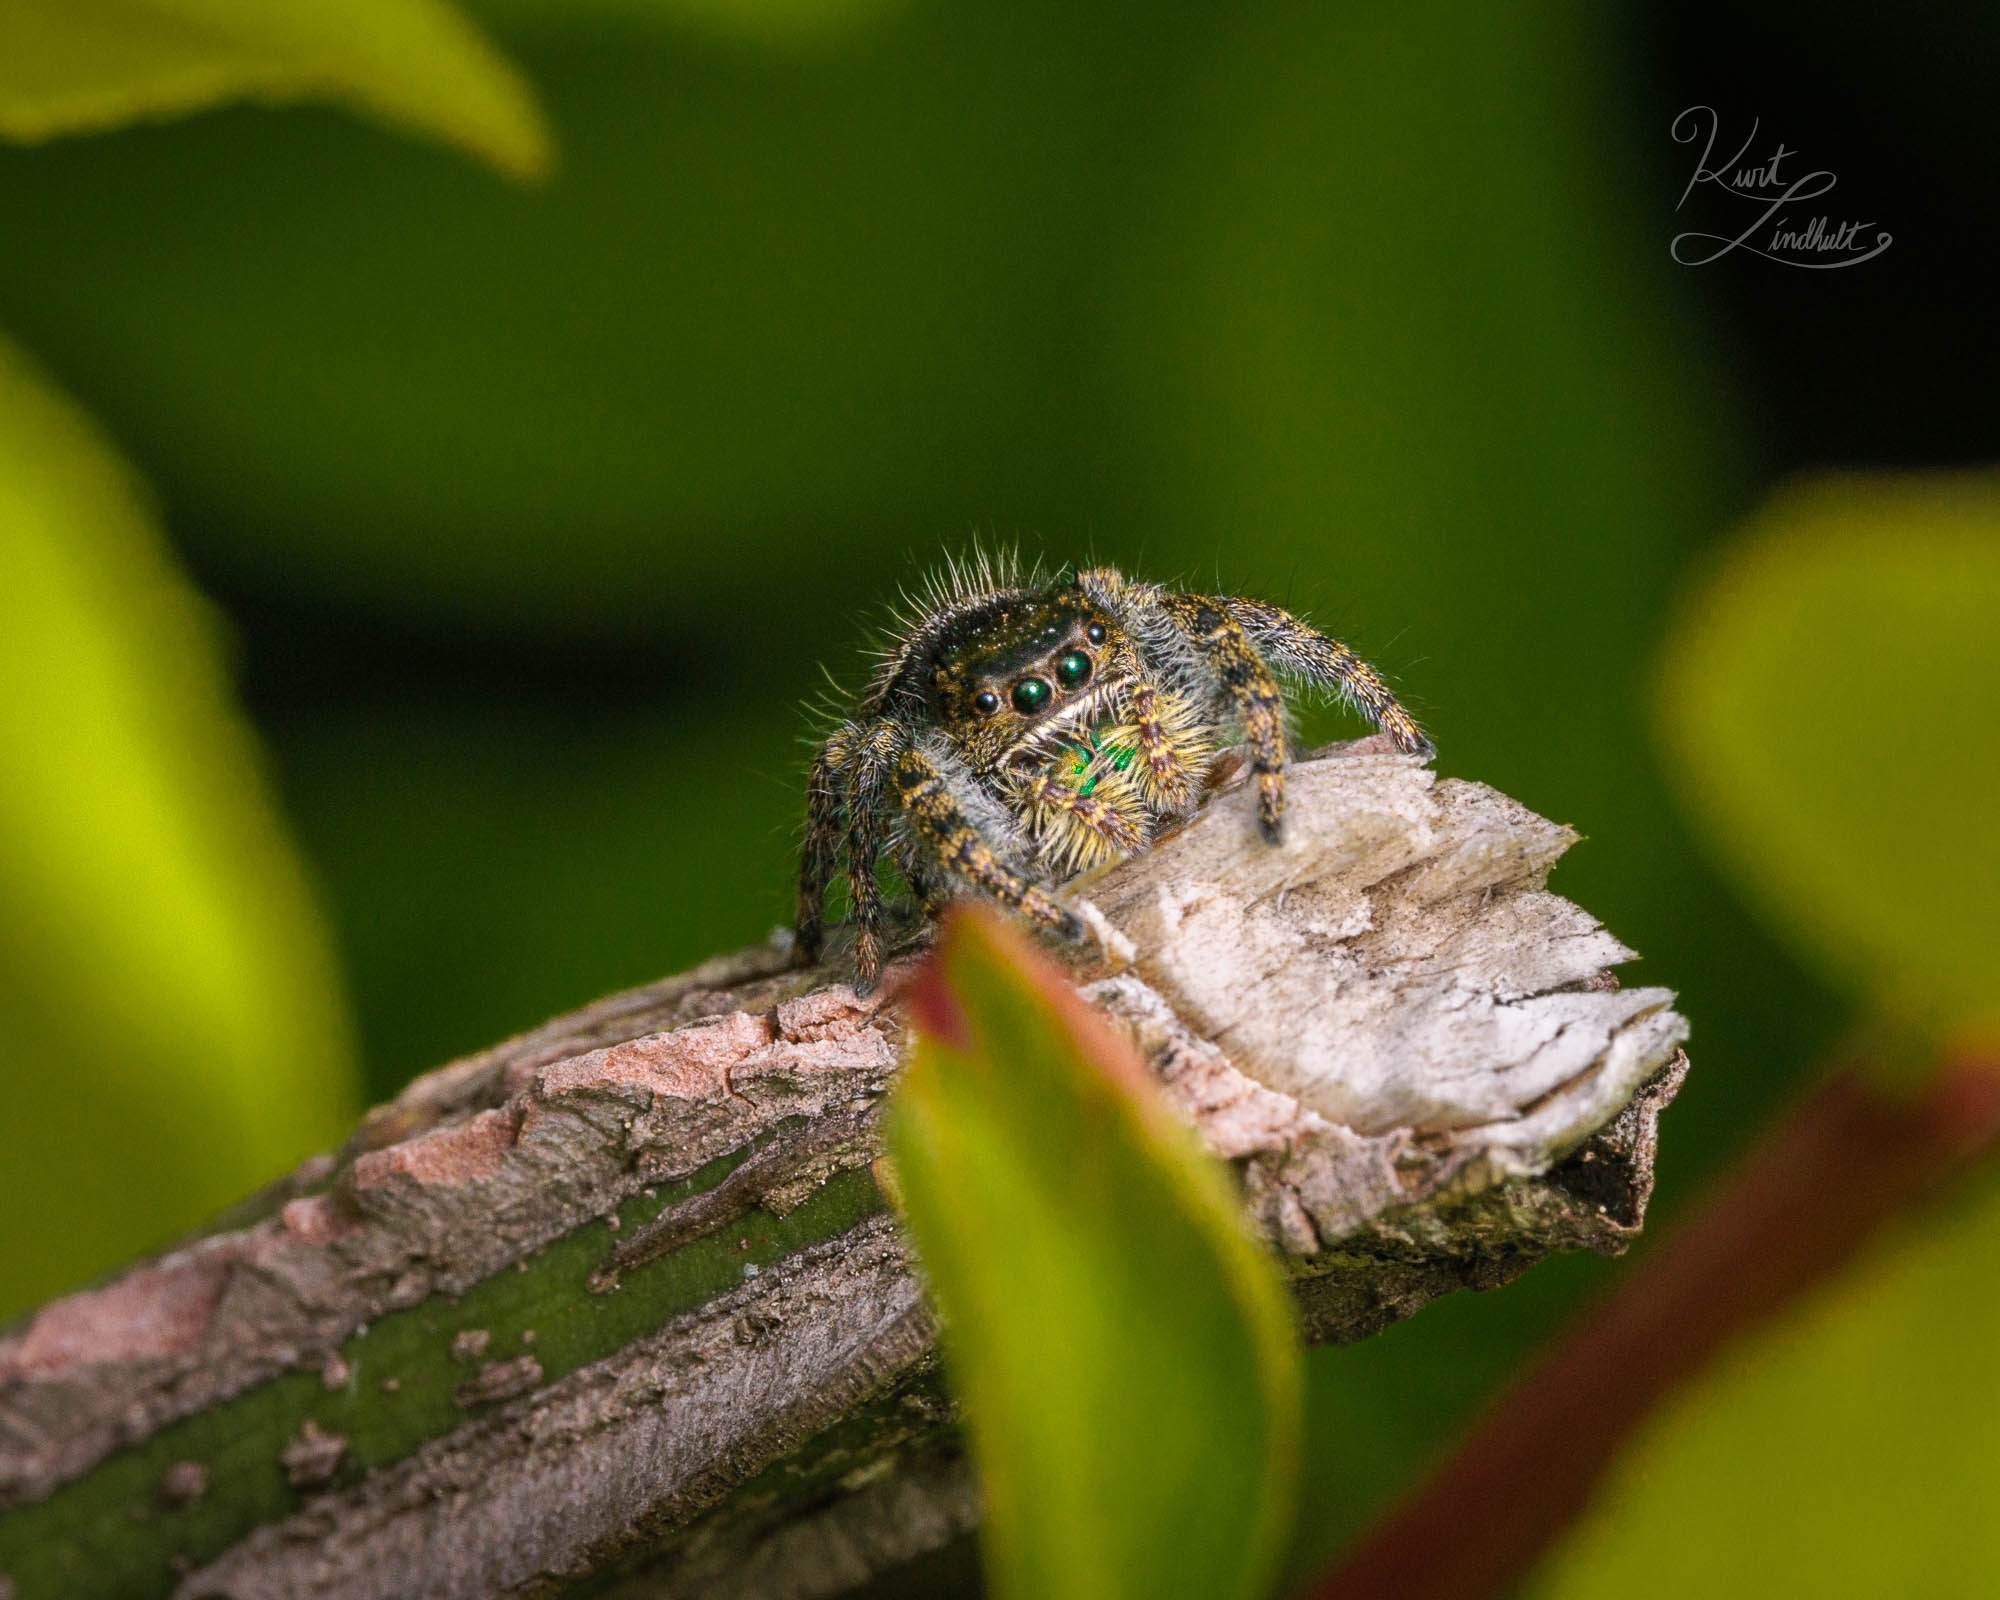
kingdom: Animalia
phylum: Arthropoda
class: Arachnida
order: Araneae
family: Salticidae
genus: Phidippus
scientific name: Phidippus audax
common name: Bold jumper
